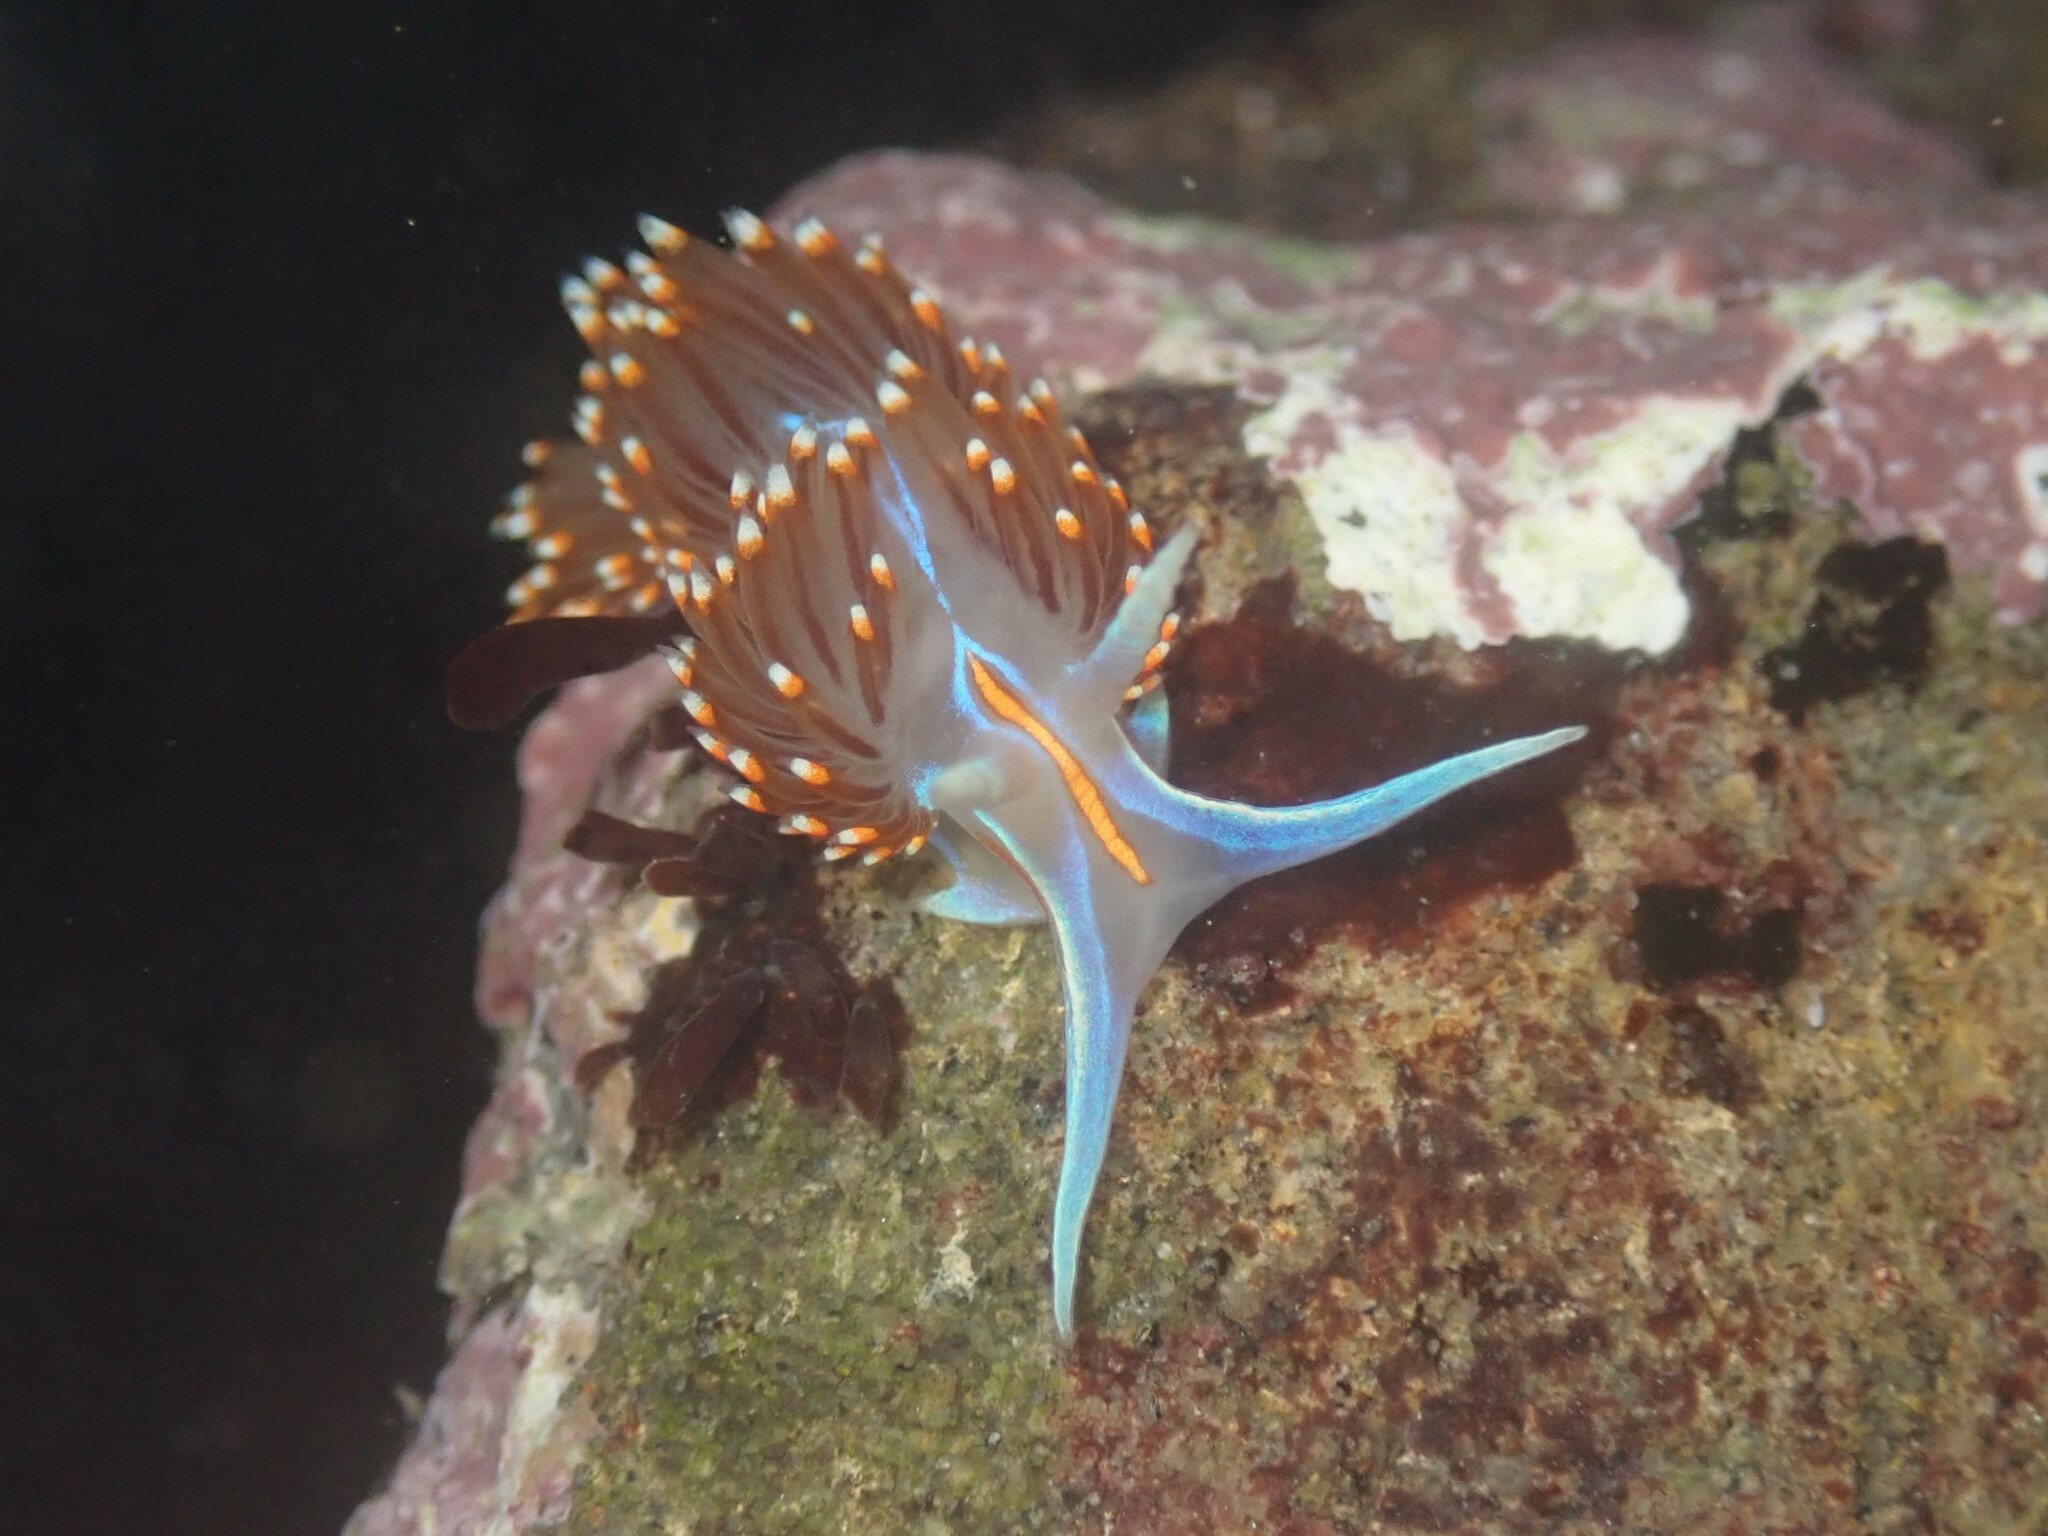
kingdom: Animalia
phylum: Mollusca
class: Gastropoda
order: Nudibranchia
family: Myrrhinidae
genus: Hermissenda
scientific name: Hermissenda opalescens
